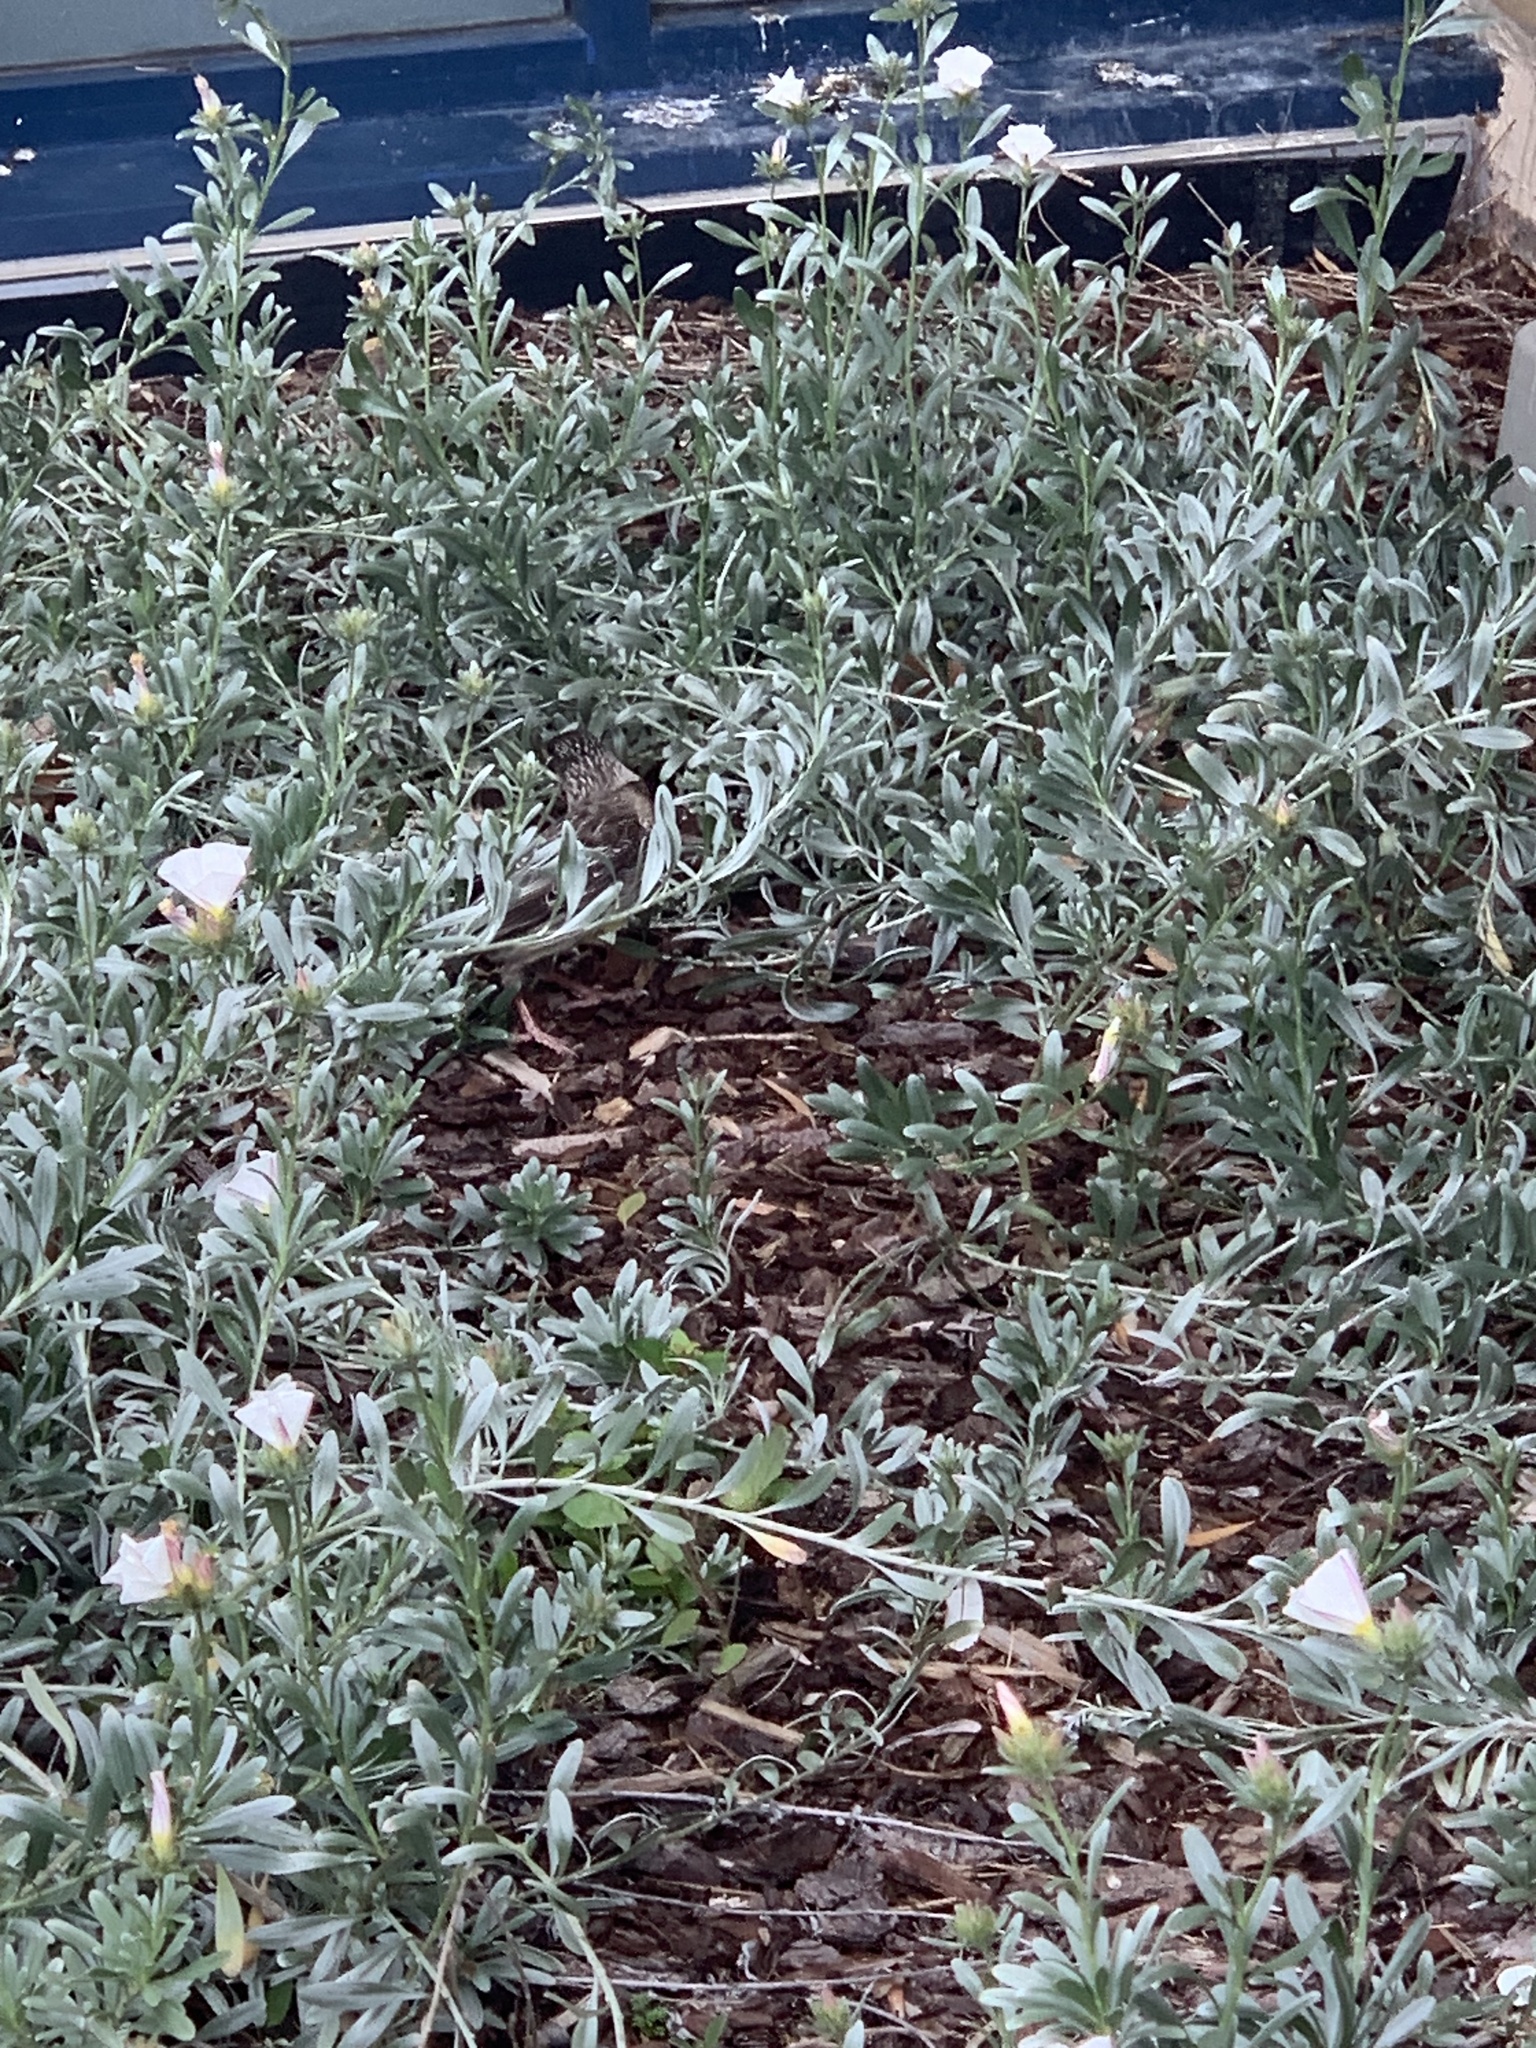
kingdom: Animalia
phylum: Chordata
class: Aves
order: Passeriformes
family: Meliphagidae
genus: Anthochaera
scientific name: Anthochaera carunculata
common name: Red wattlebird
